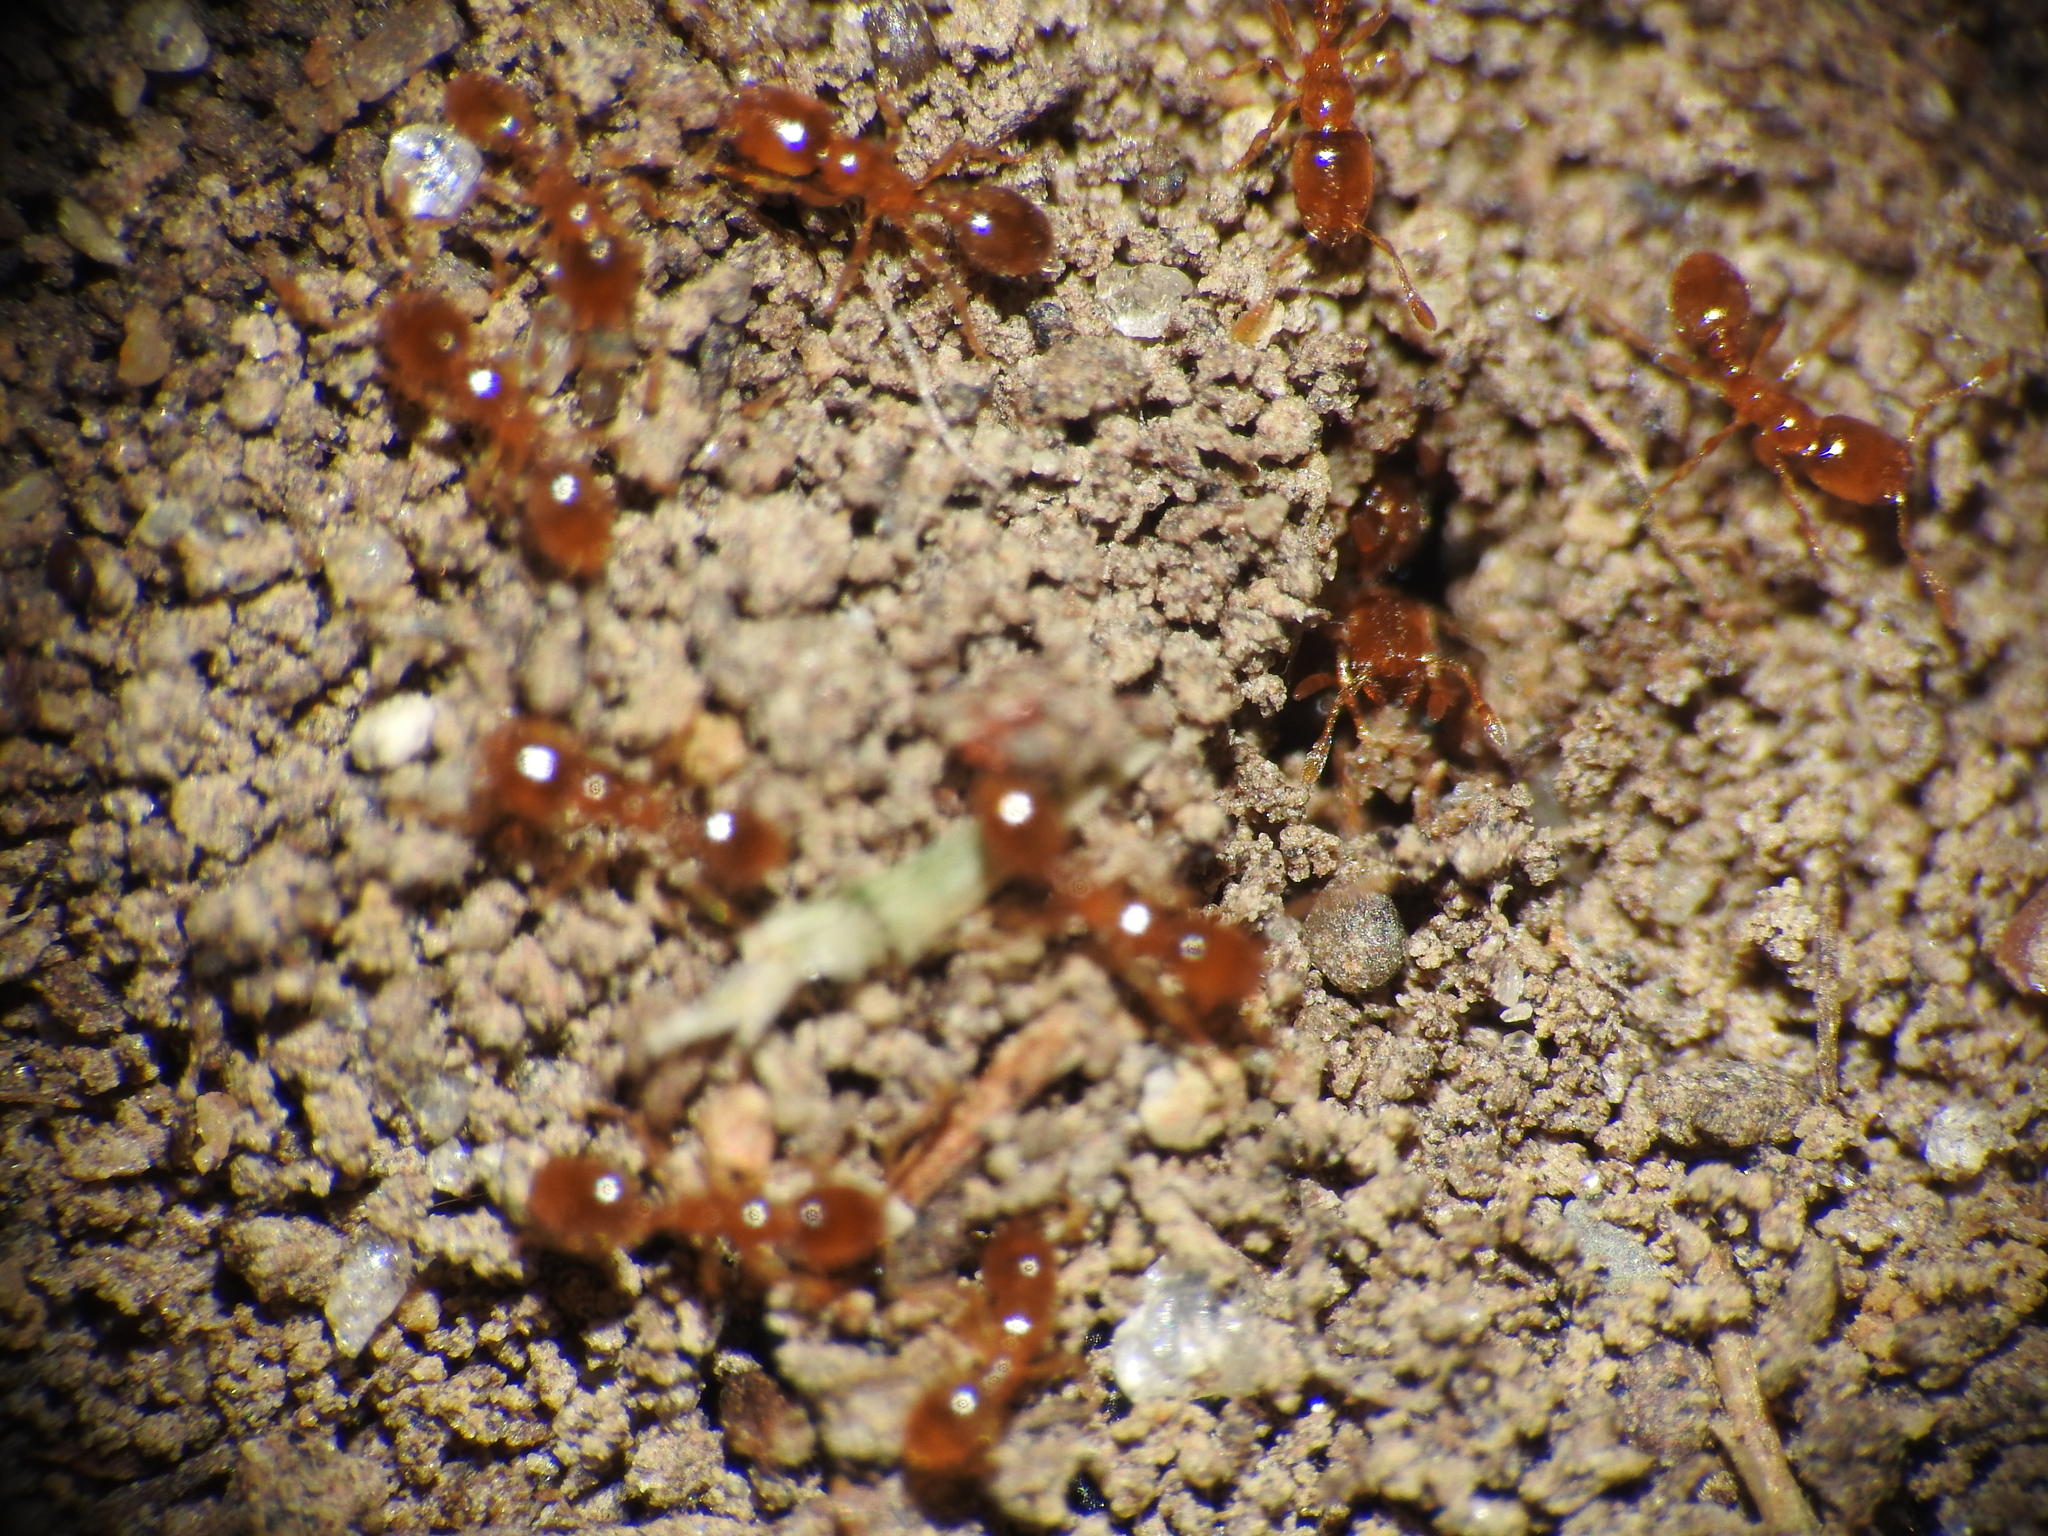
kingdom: Animalia
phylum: Arthropoda
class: Insecta
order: Hymenoptera
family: Formicidae
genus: Solenopsis
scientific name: Solenopsis
